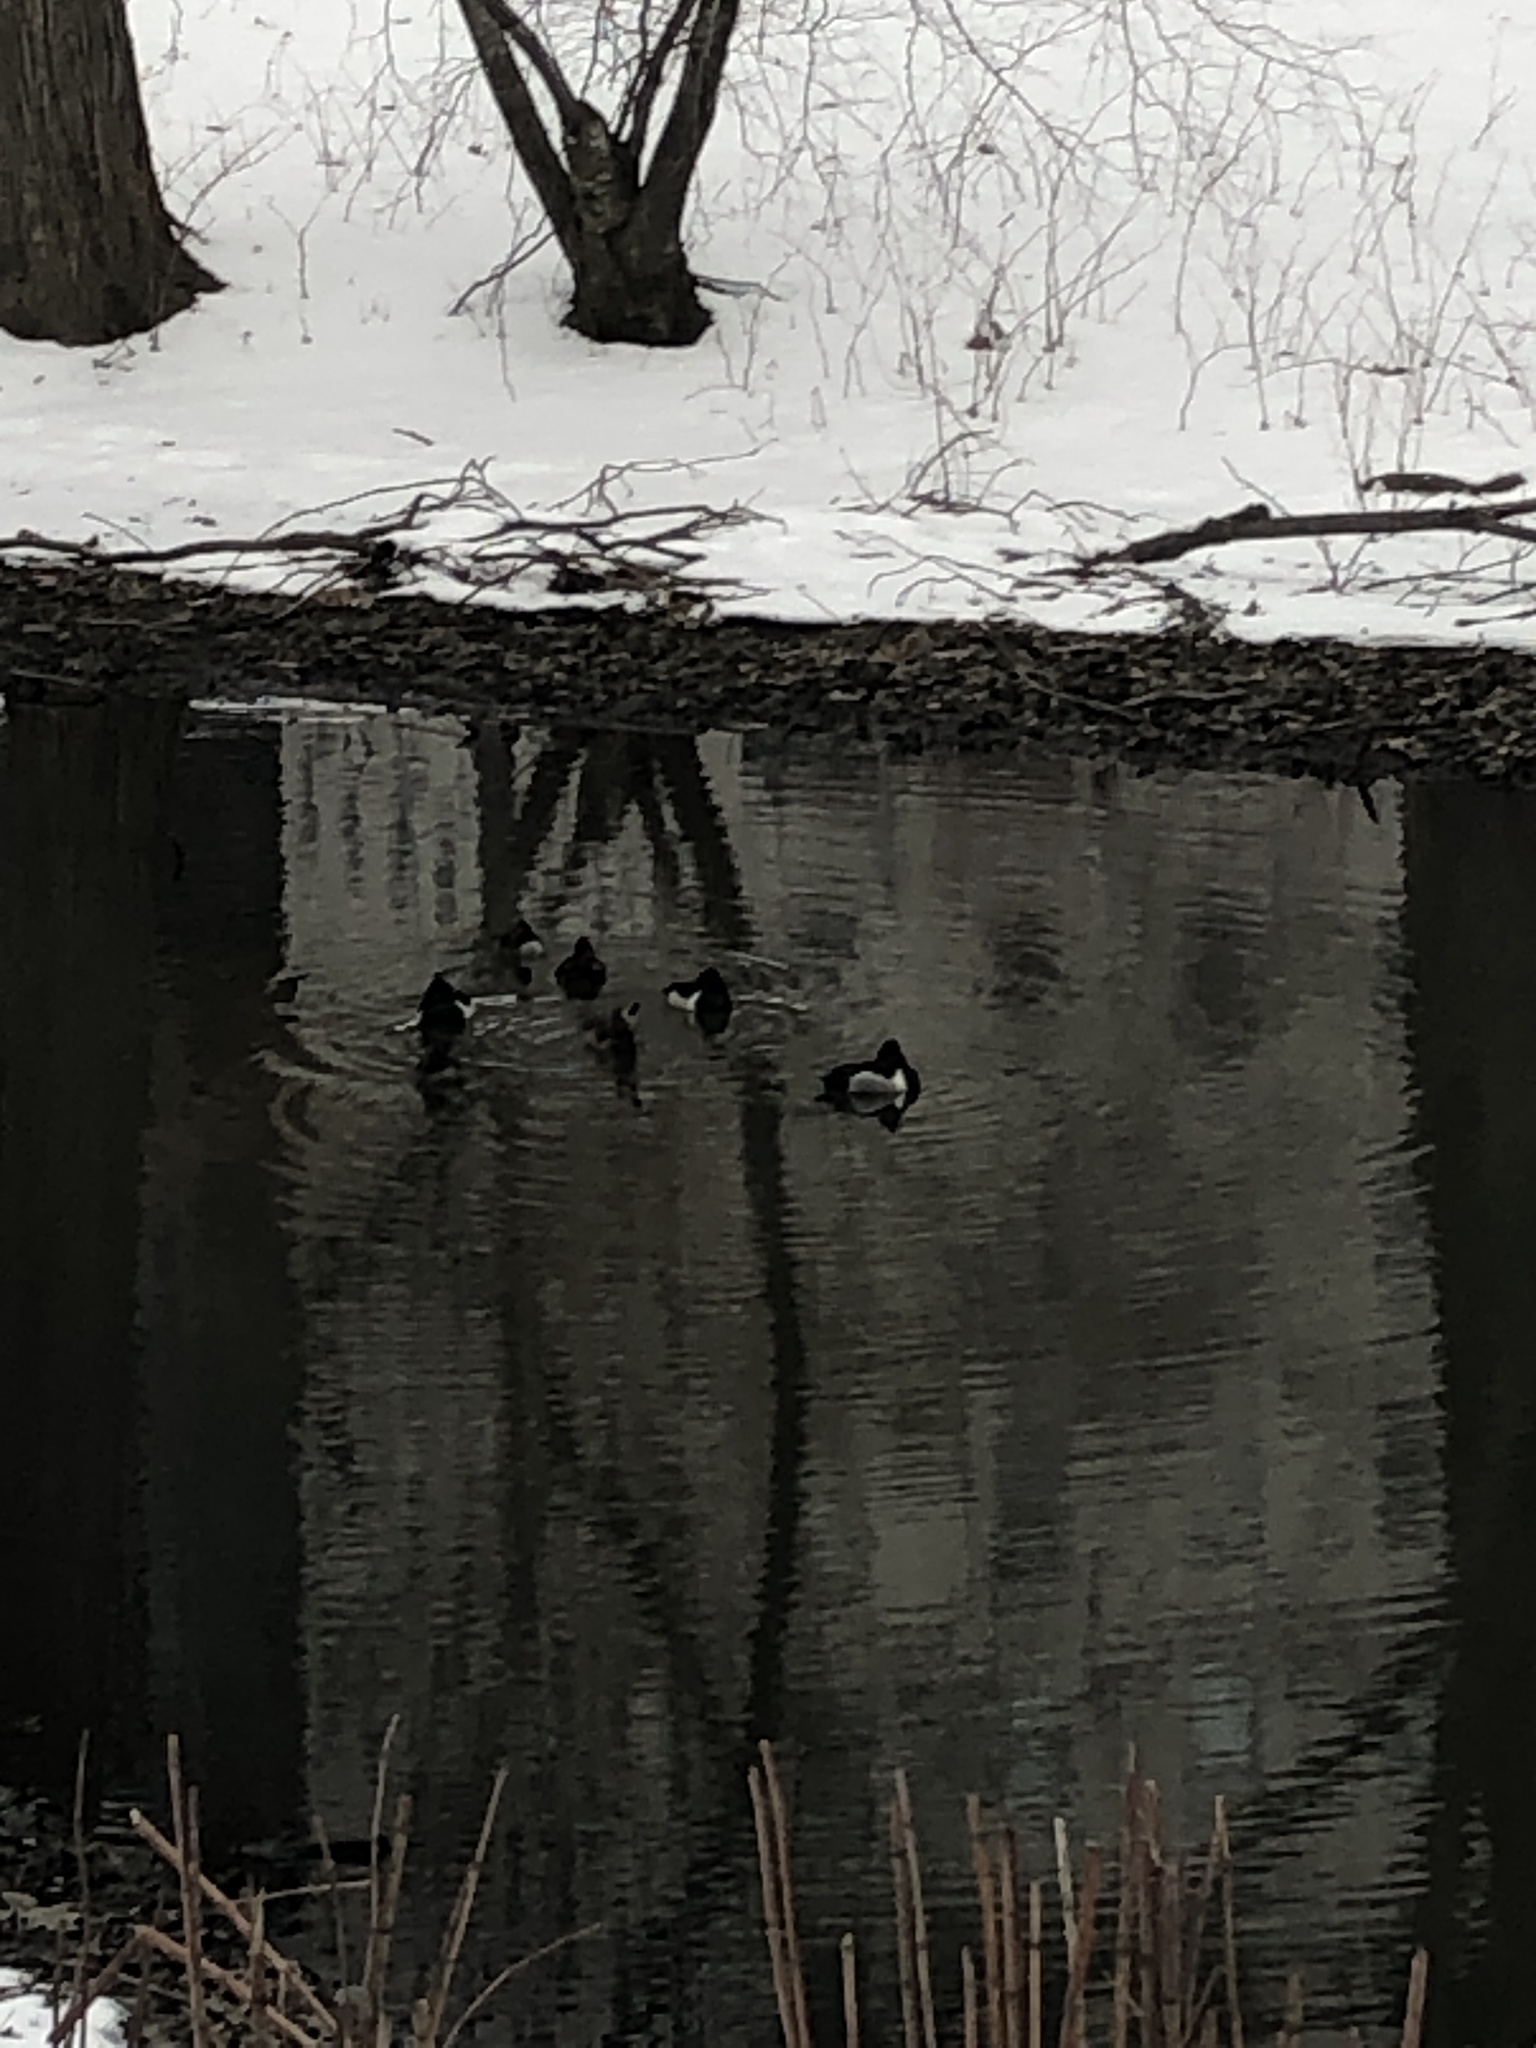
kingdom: Animalia
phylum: Chordata
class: Aves
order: Anseriformes
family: Anatidae
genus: Aythya
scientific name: Aythya collaris
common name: Ring-necked duck
